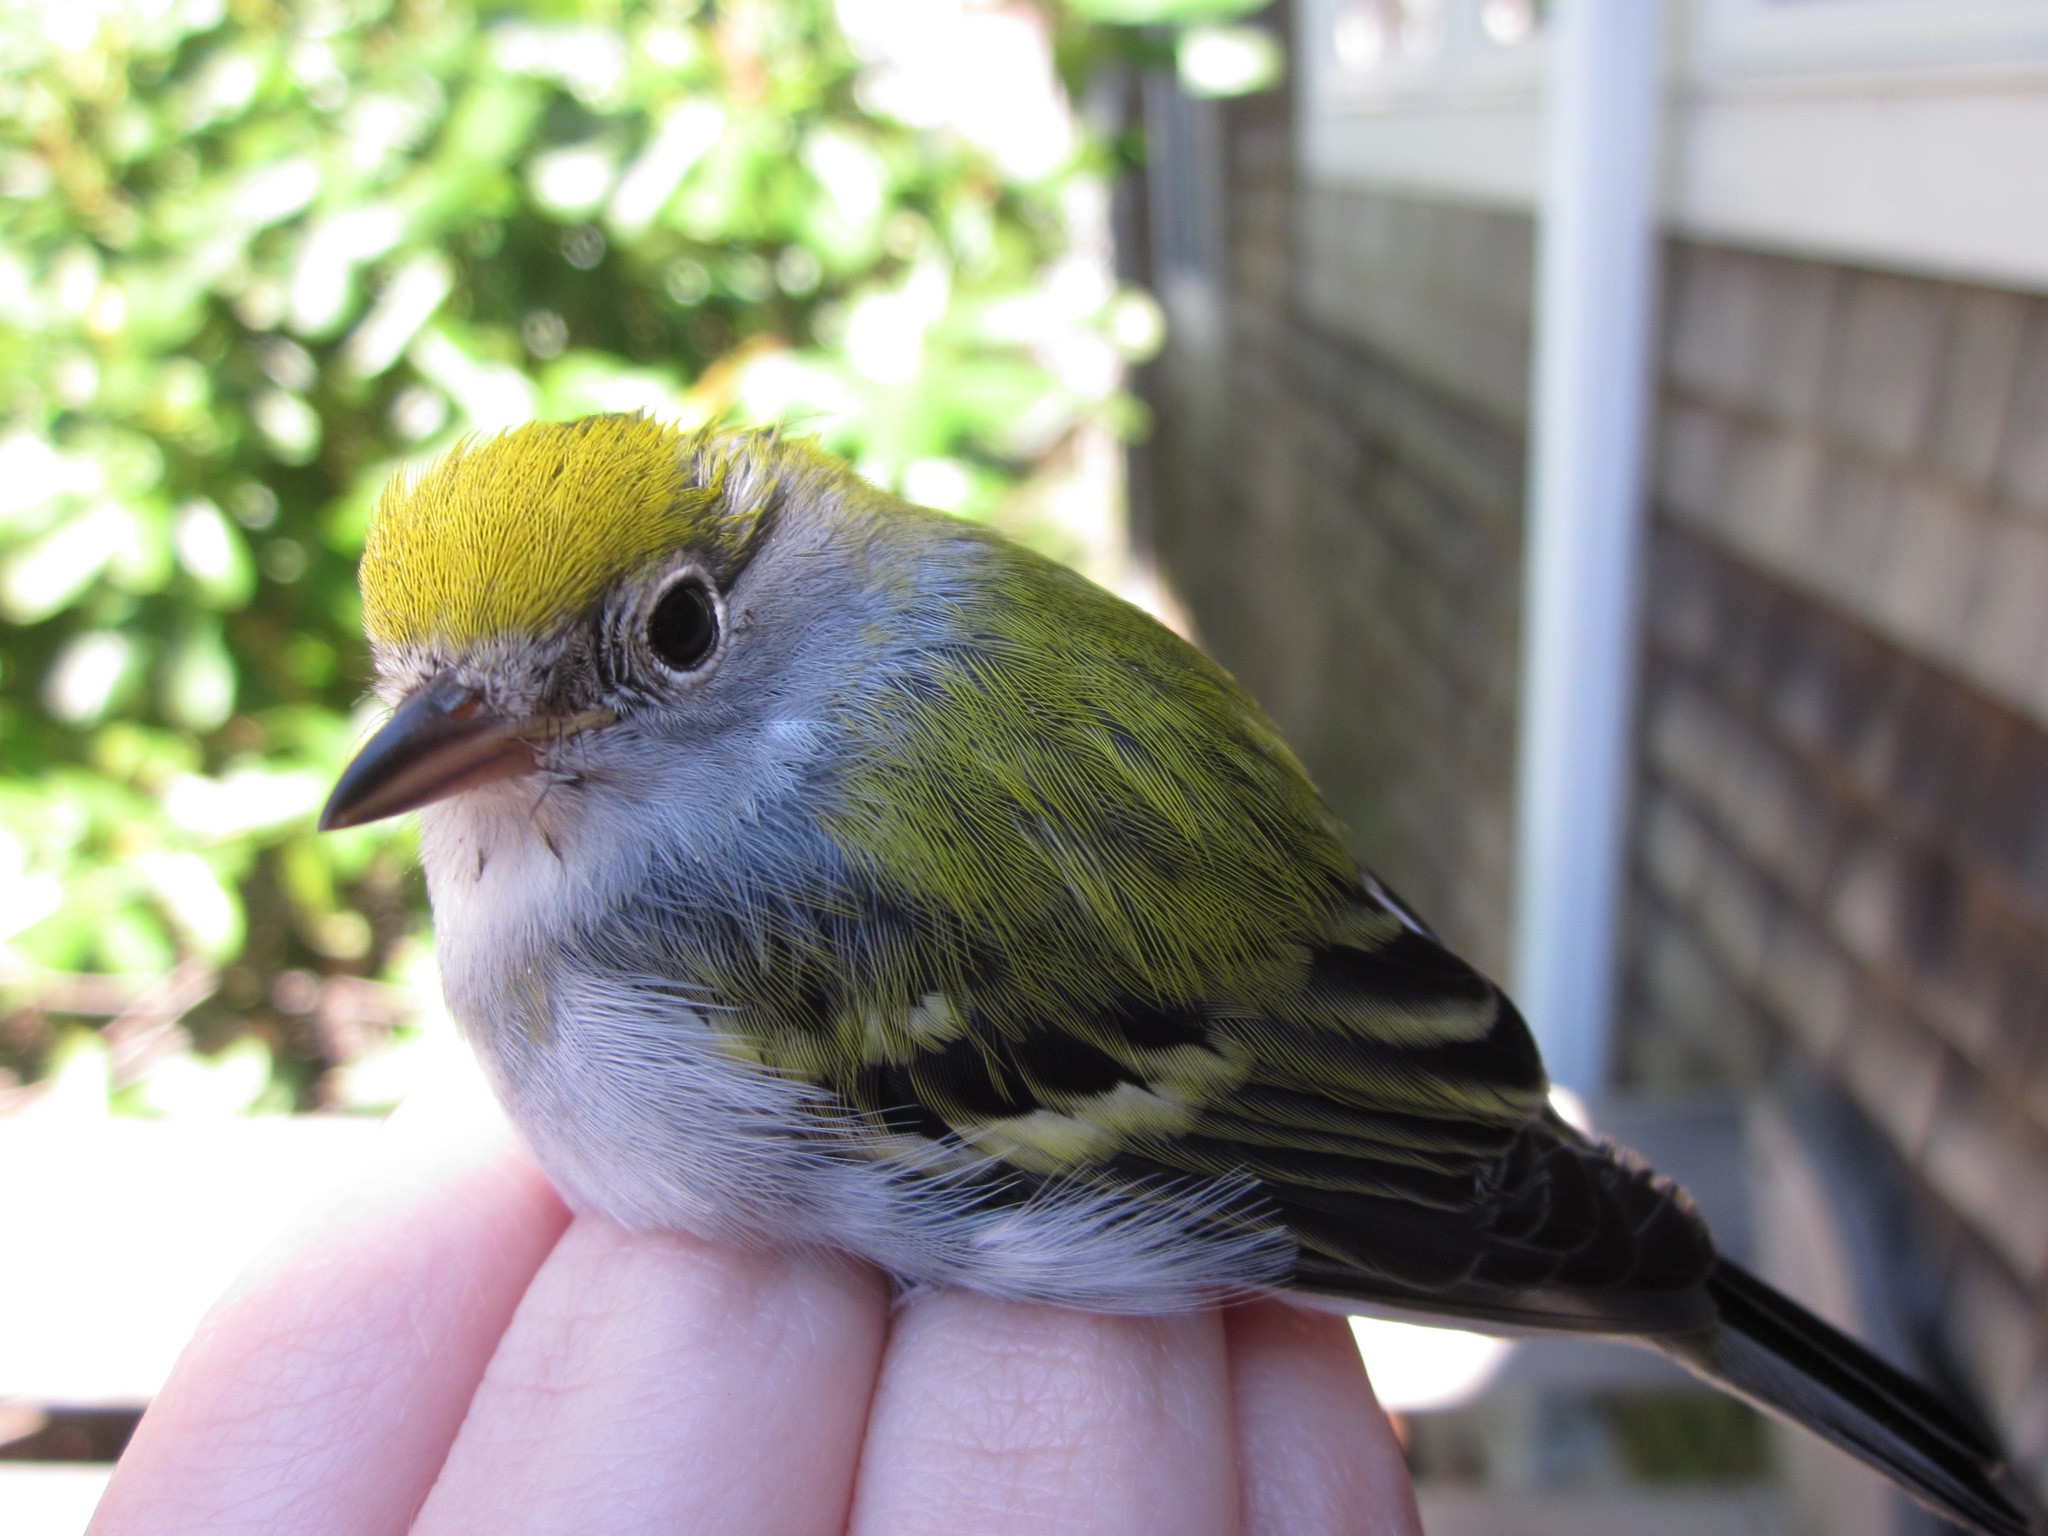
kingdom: Animalia
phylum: Chordata
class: Aves
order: Passeriformes
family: Parulidae
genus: Setophaga
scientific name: Setophaga pensylvanica
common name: Chestnut-sided warbler
